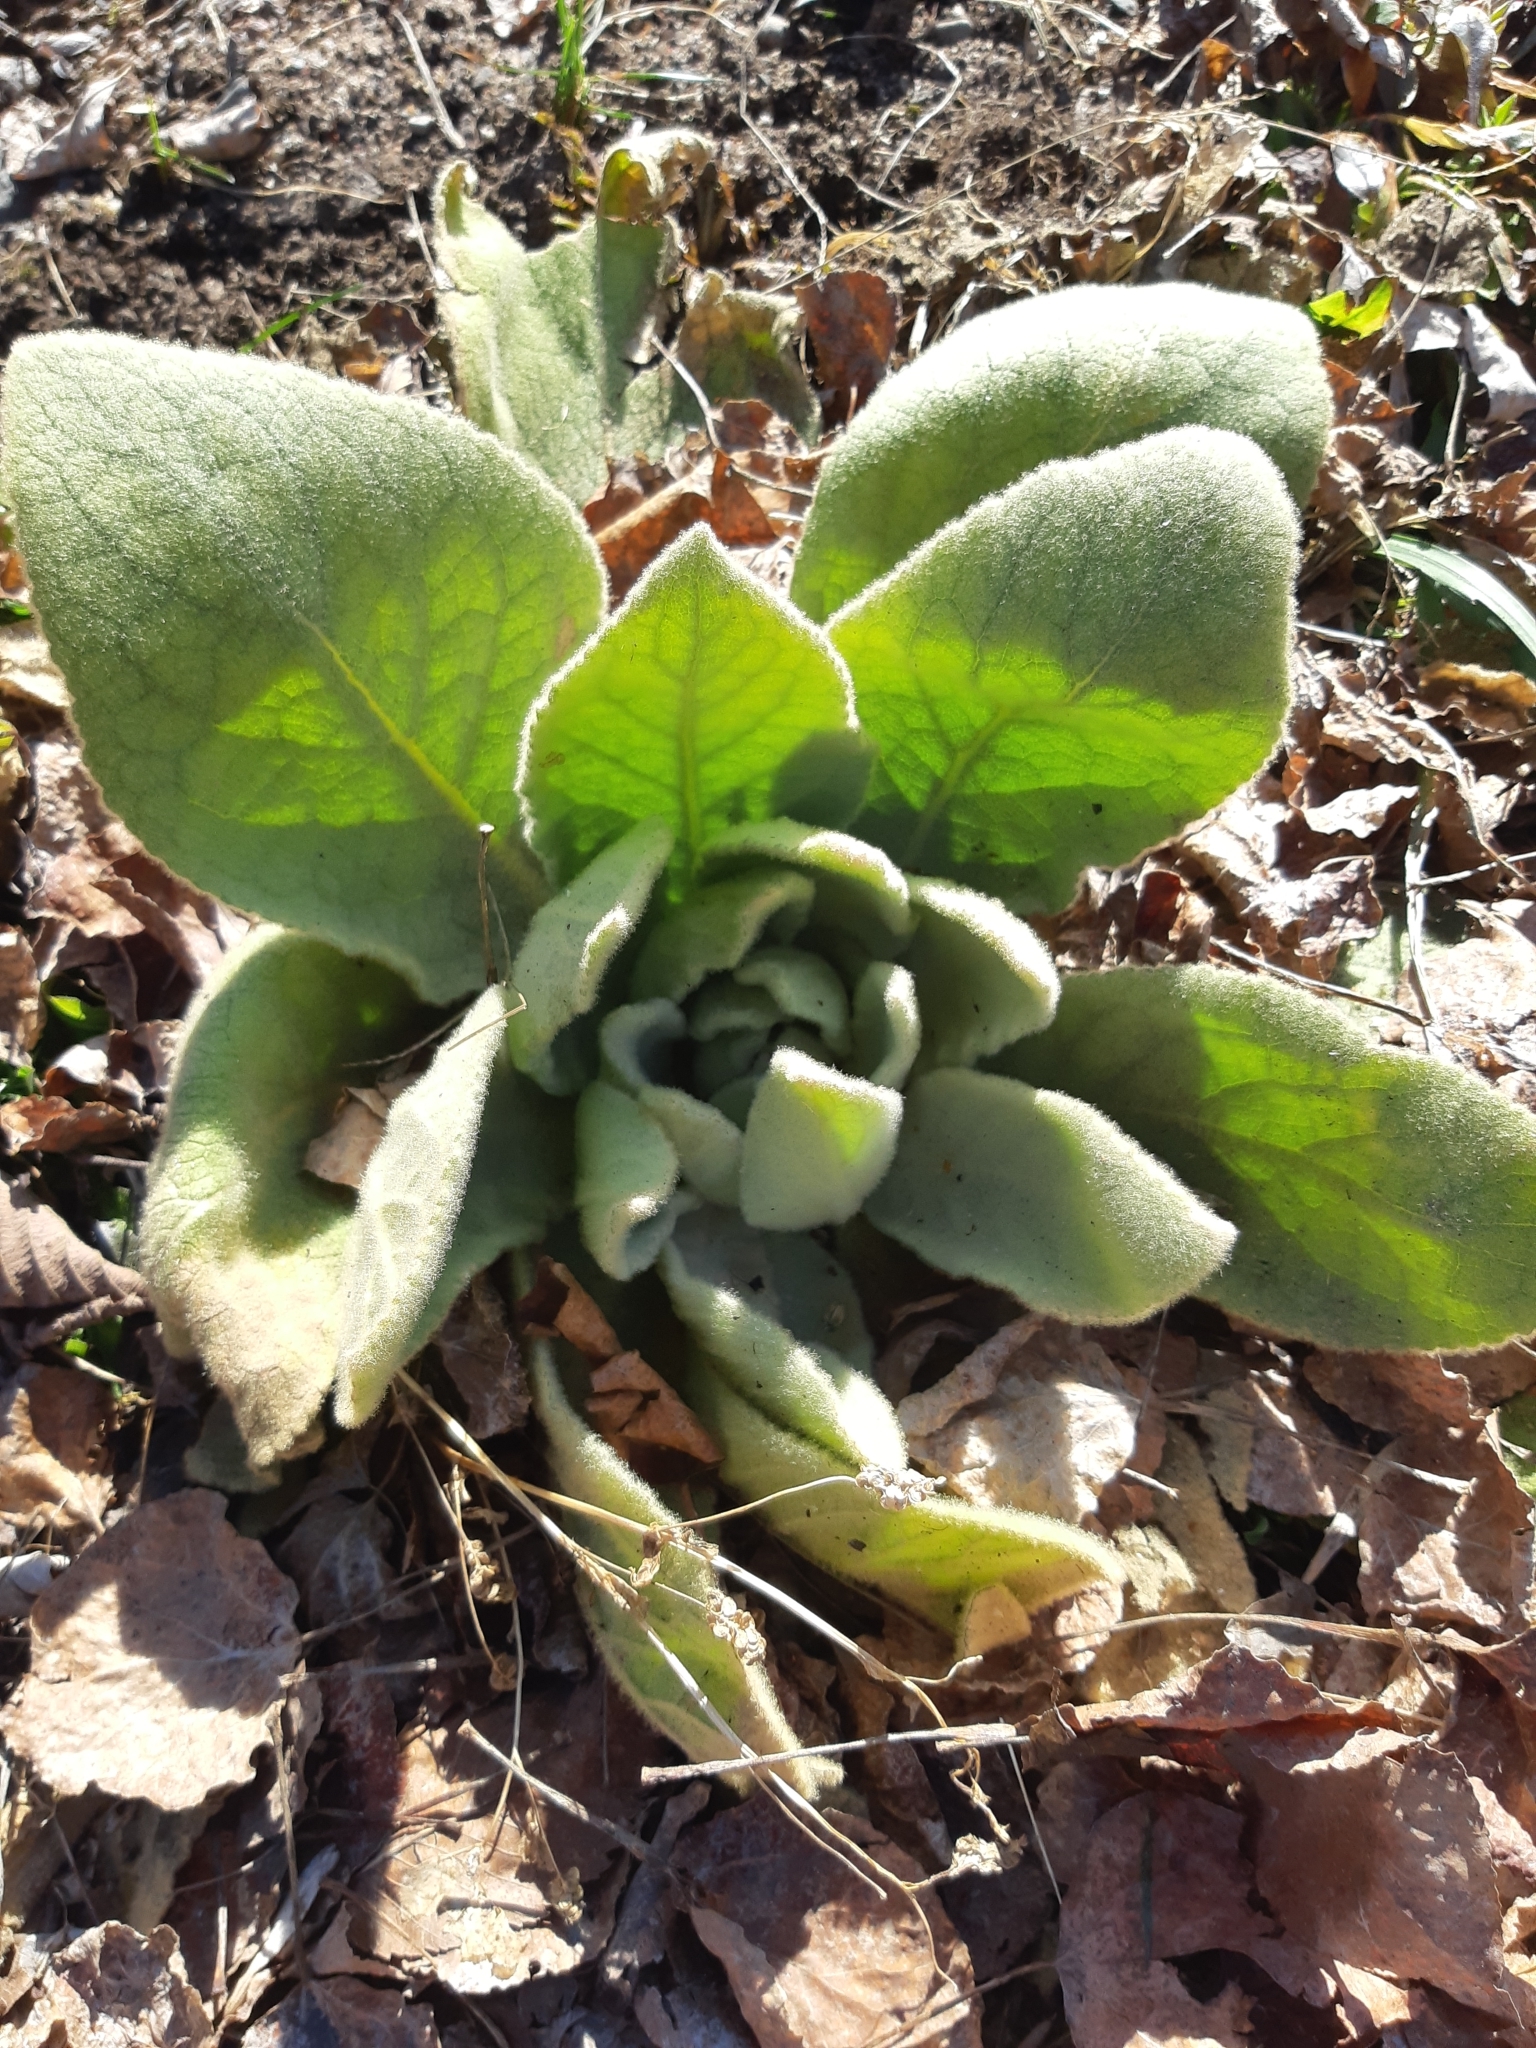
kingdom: Plantae
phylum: Tracheophyta
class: Magnoliopsida
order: Lamiales
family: Scrophulariaceae
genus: Verbascum
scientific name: Verbascum thapsus
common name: Common mullein
